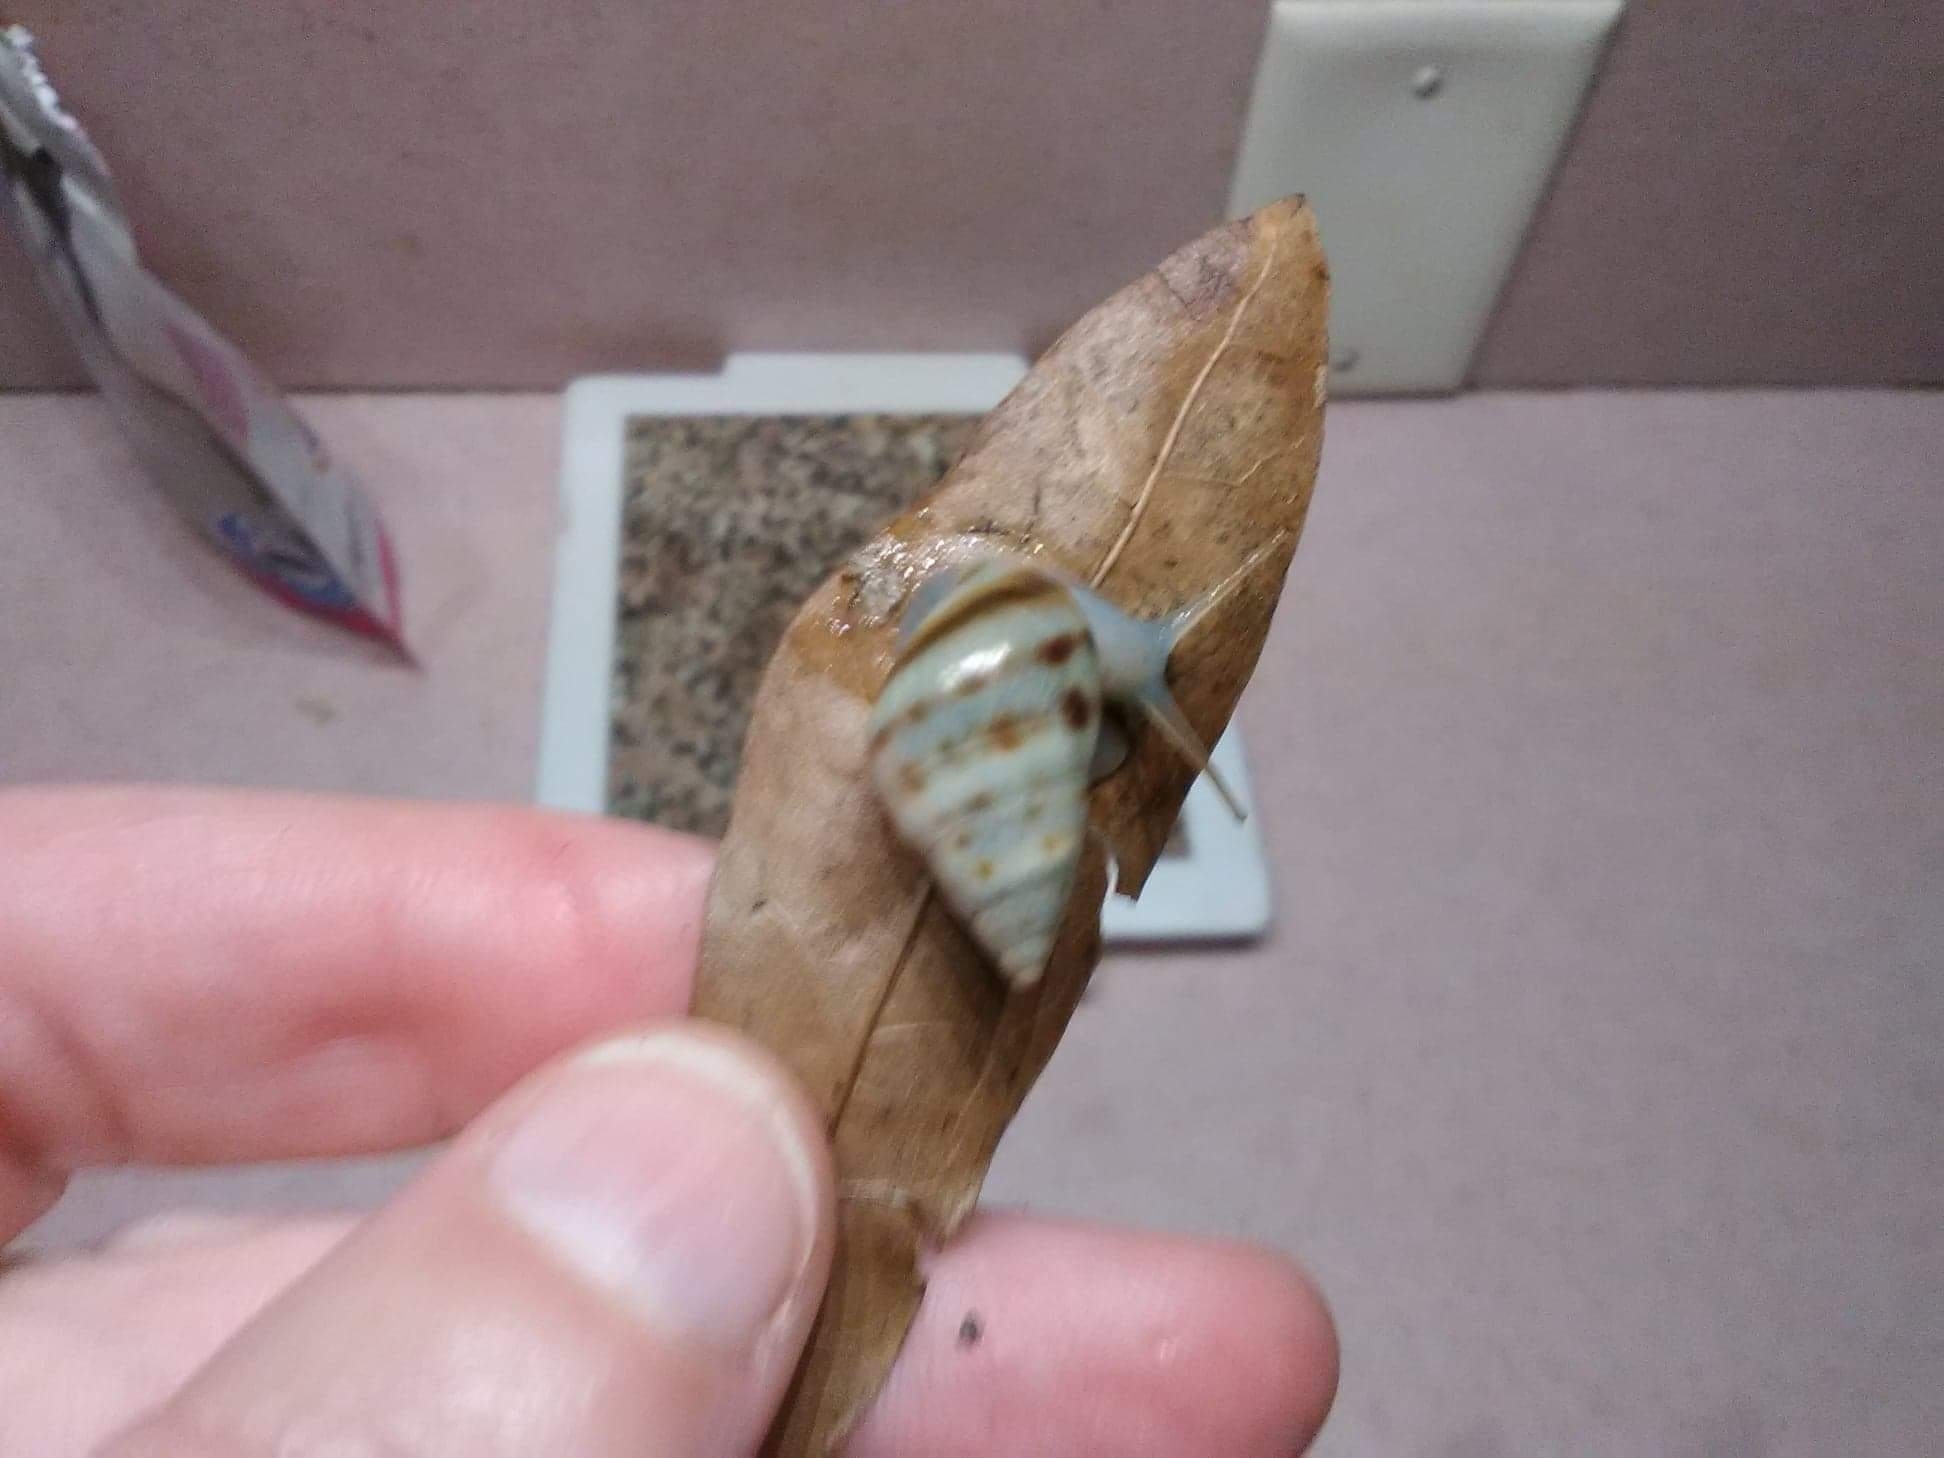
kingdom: Animalia
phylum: Mollusca
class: Gastropoda
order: Stylommatophora
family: Bulimulidae
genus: Drymaeus
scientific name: Drymaeus dormani
